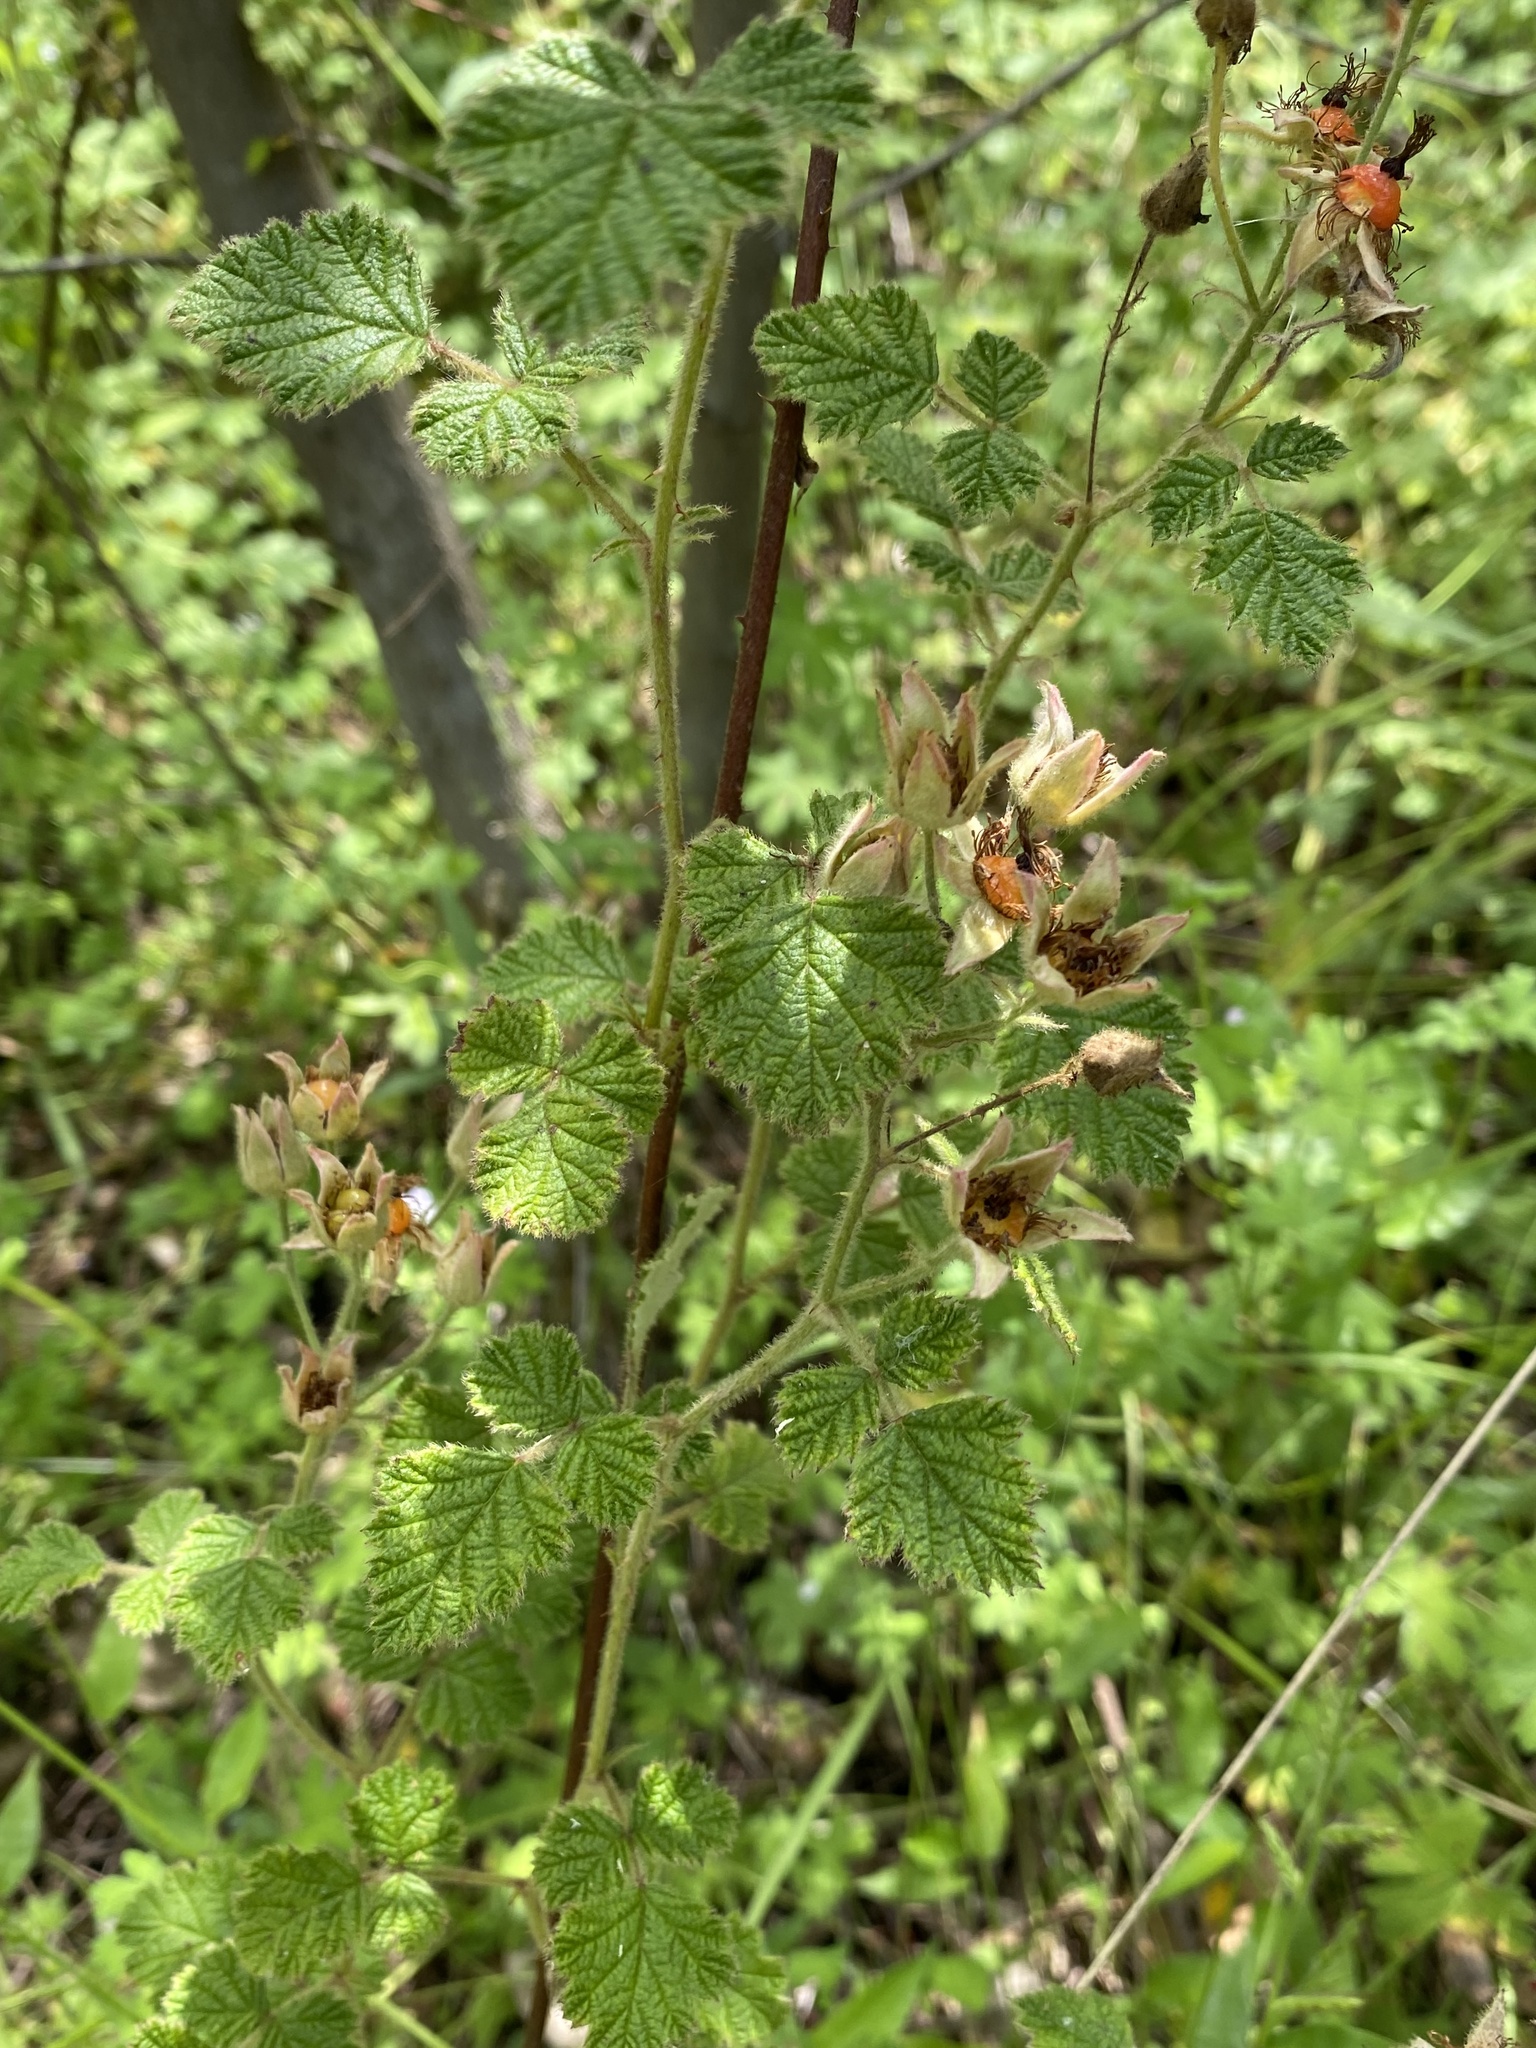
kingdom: Plantae
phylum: Tracheophyta
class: Magnoliopsida
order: Rosales
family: Rosaceae
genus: Rubus
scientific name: Rubus parvifolius
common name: Threeleaf blackberry
